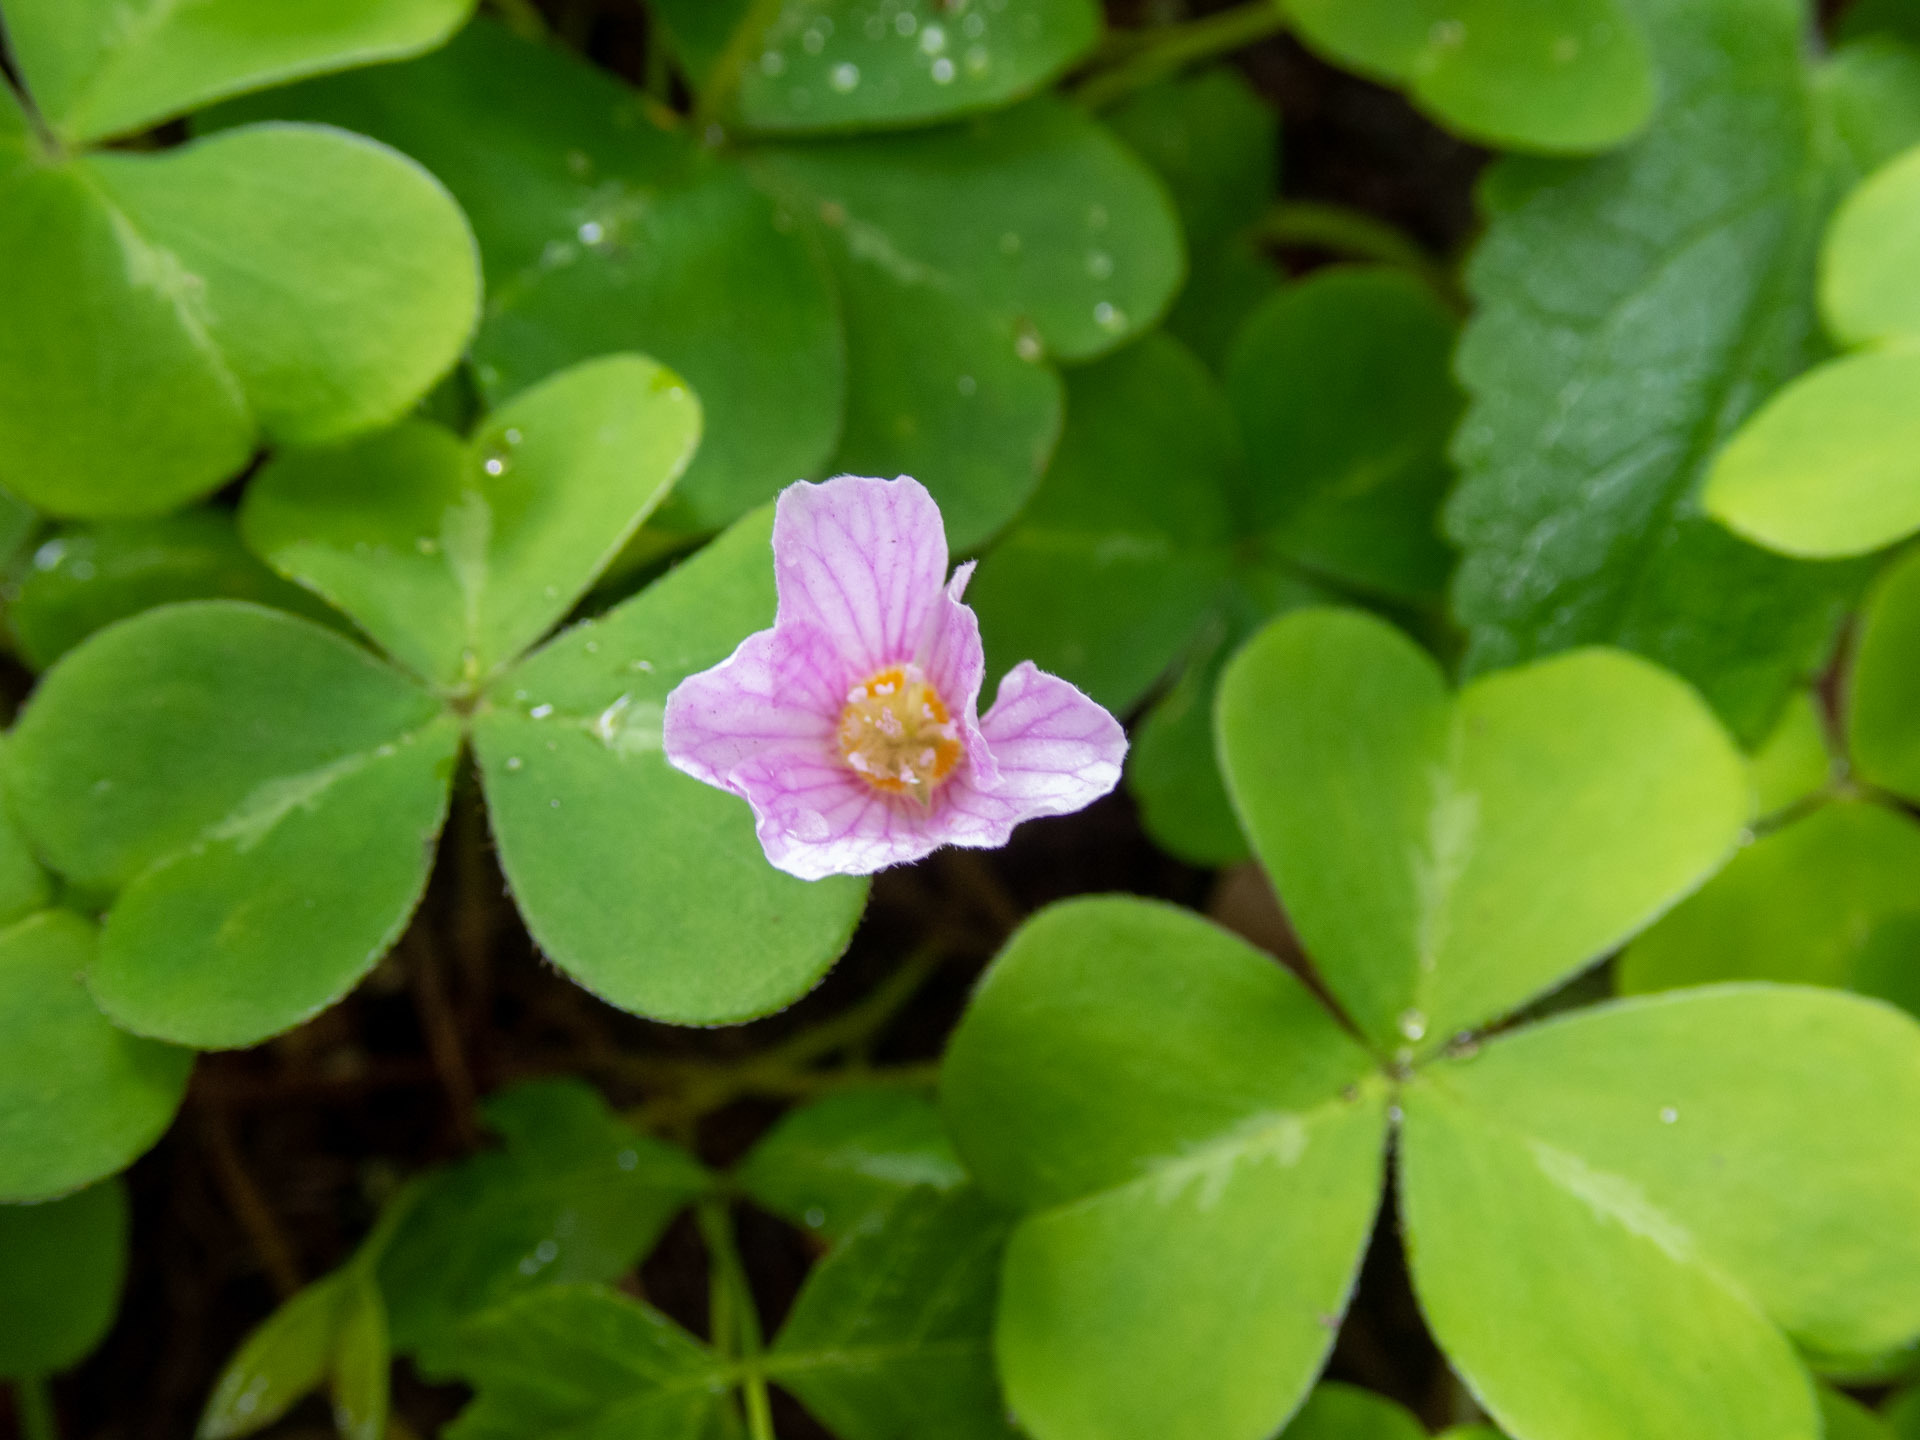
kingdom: Plantae
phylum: Tracheophyta
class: Magnoliopsida
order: Oxalidales
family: Oxalidaceae
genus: Oxalis
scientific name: Oxalis oregana
